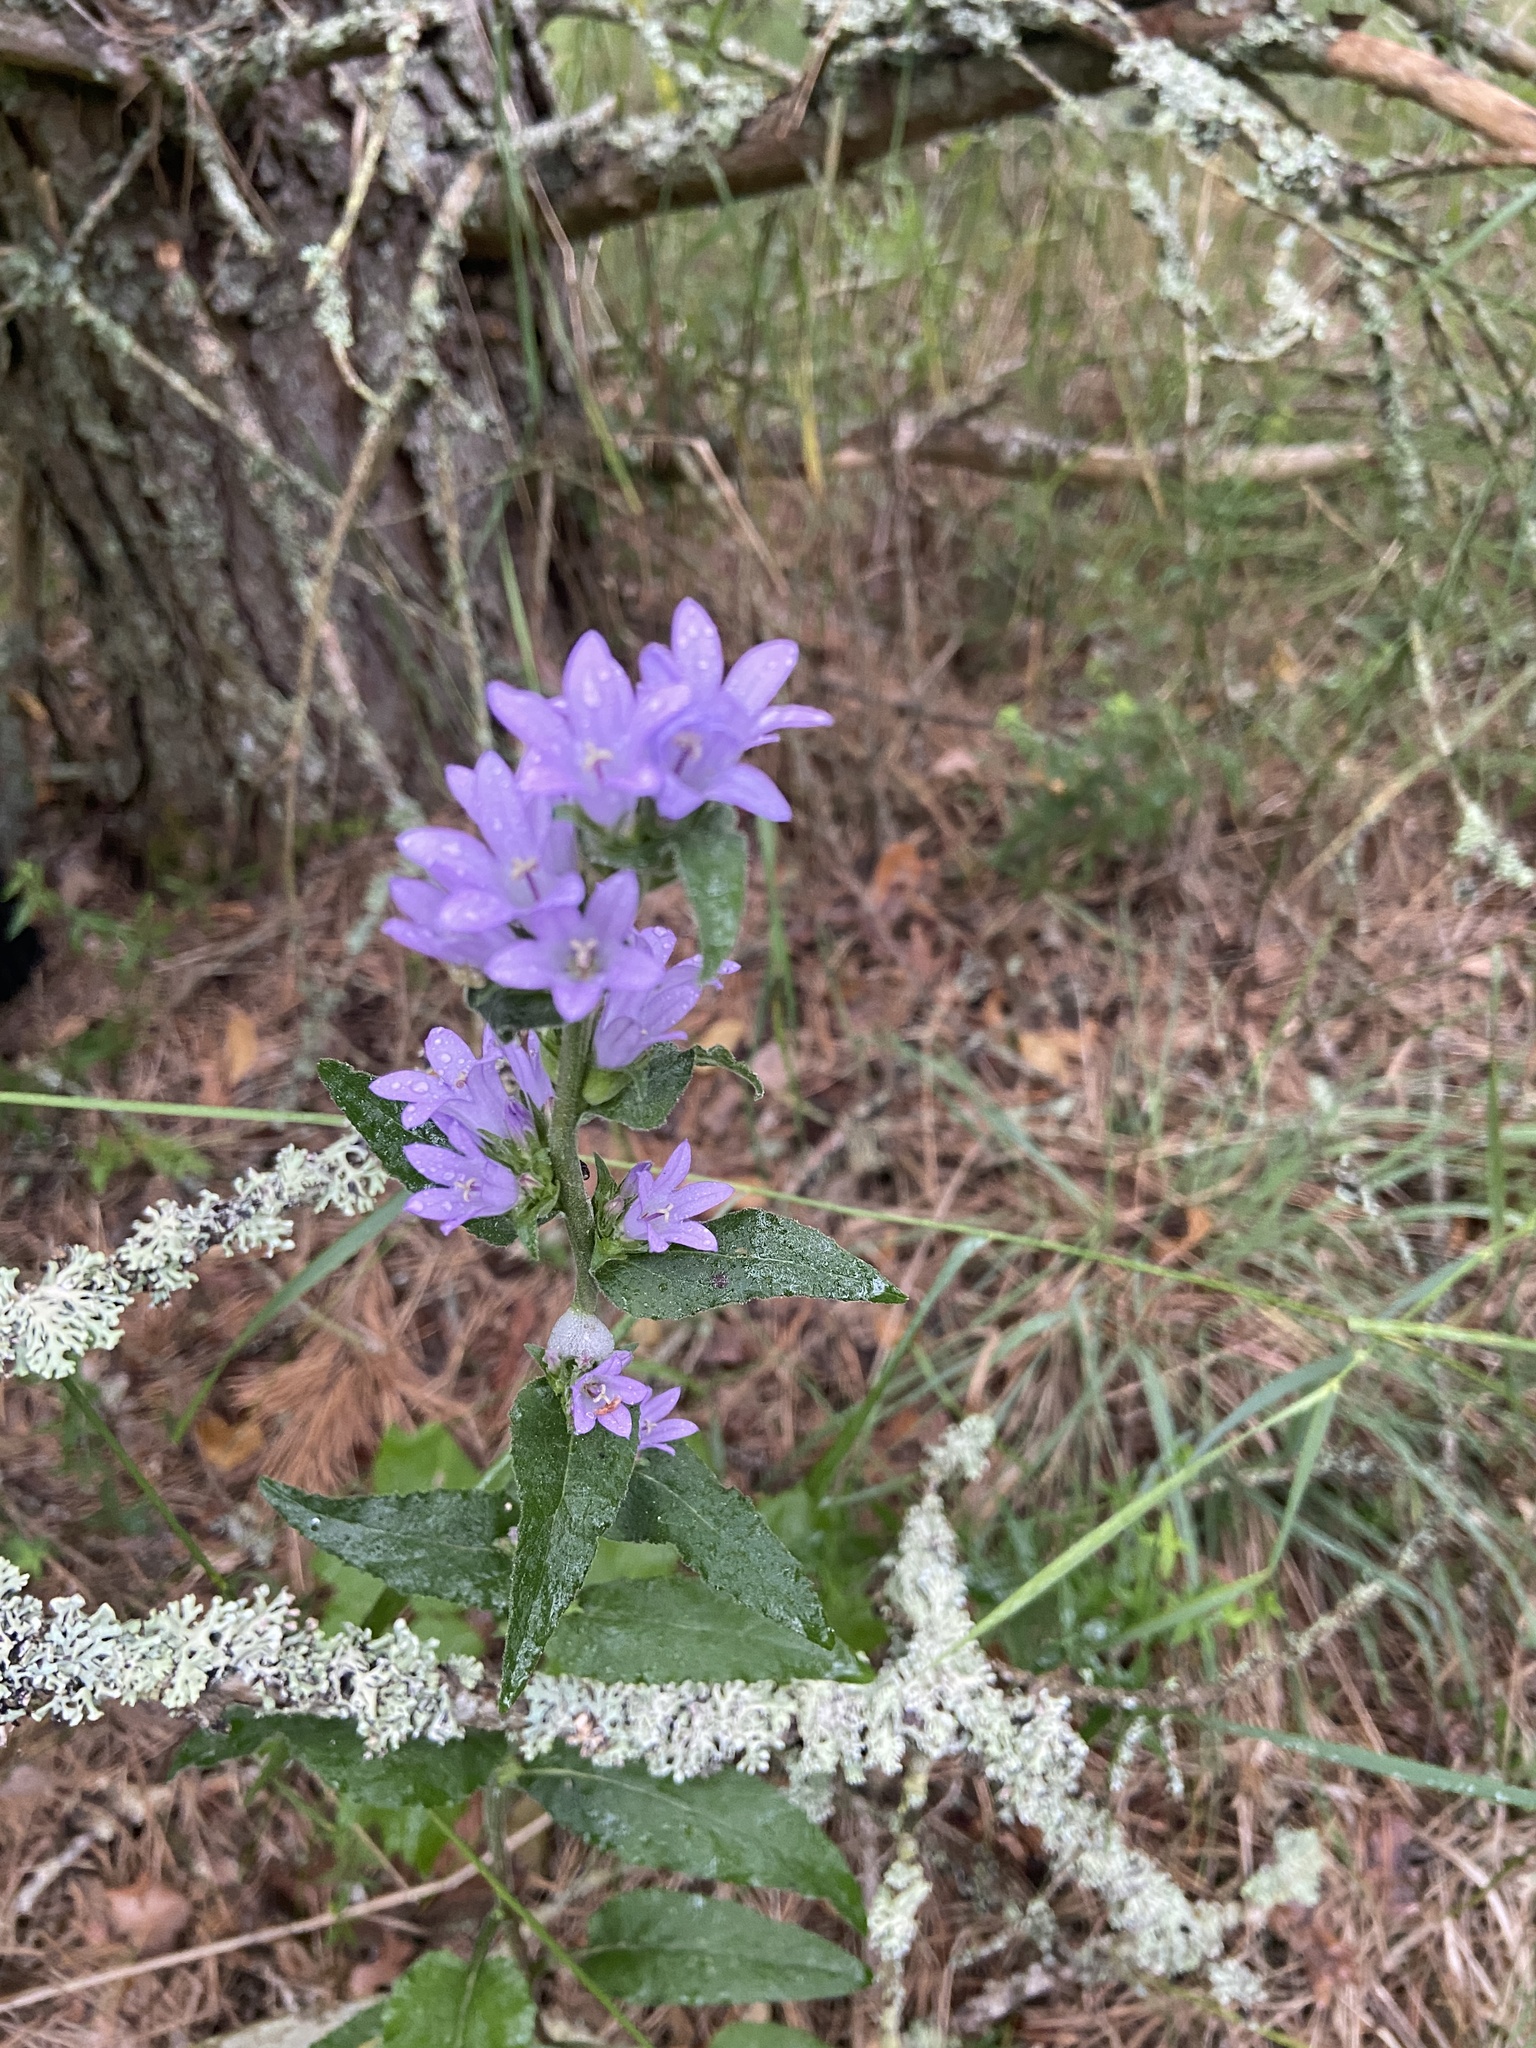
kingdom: Plantae
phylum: Tracheophyta
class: Magnoliopsida
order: Asterales
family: Campanulaceae
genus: Campanula
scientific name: Campanula glomerata
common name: Clustered bellflower
